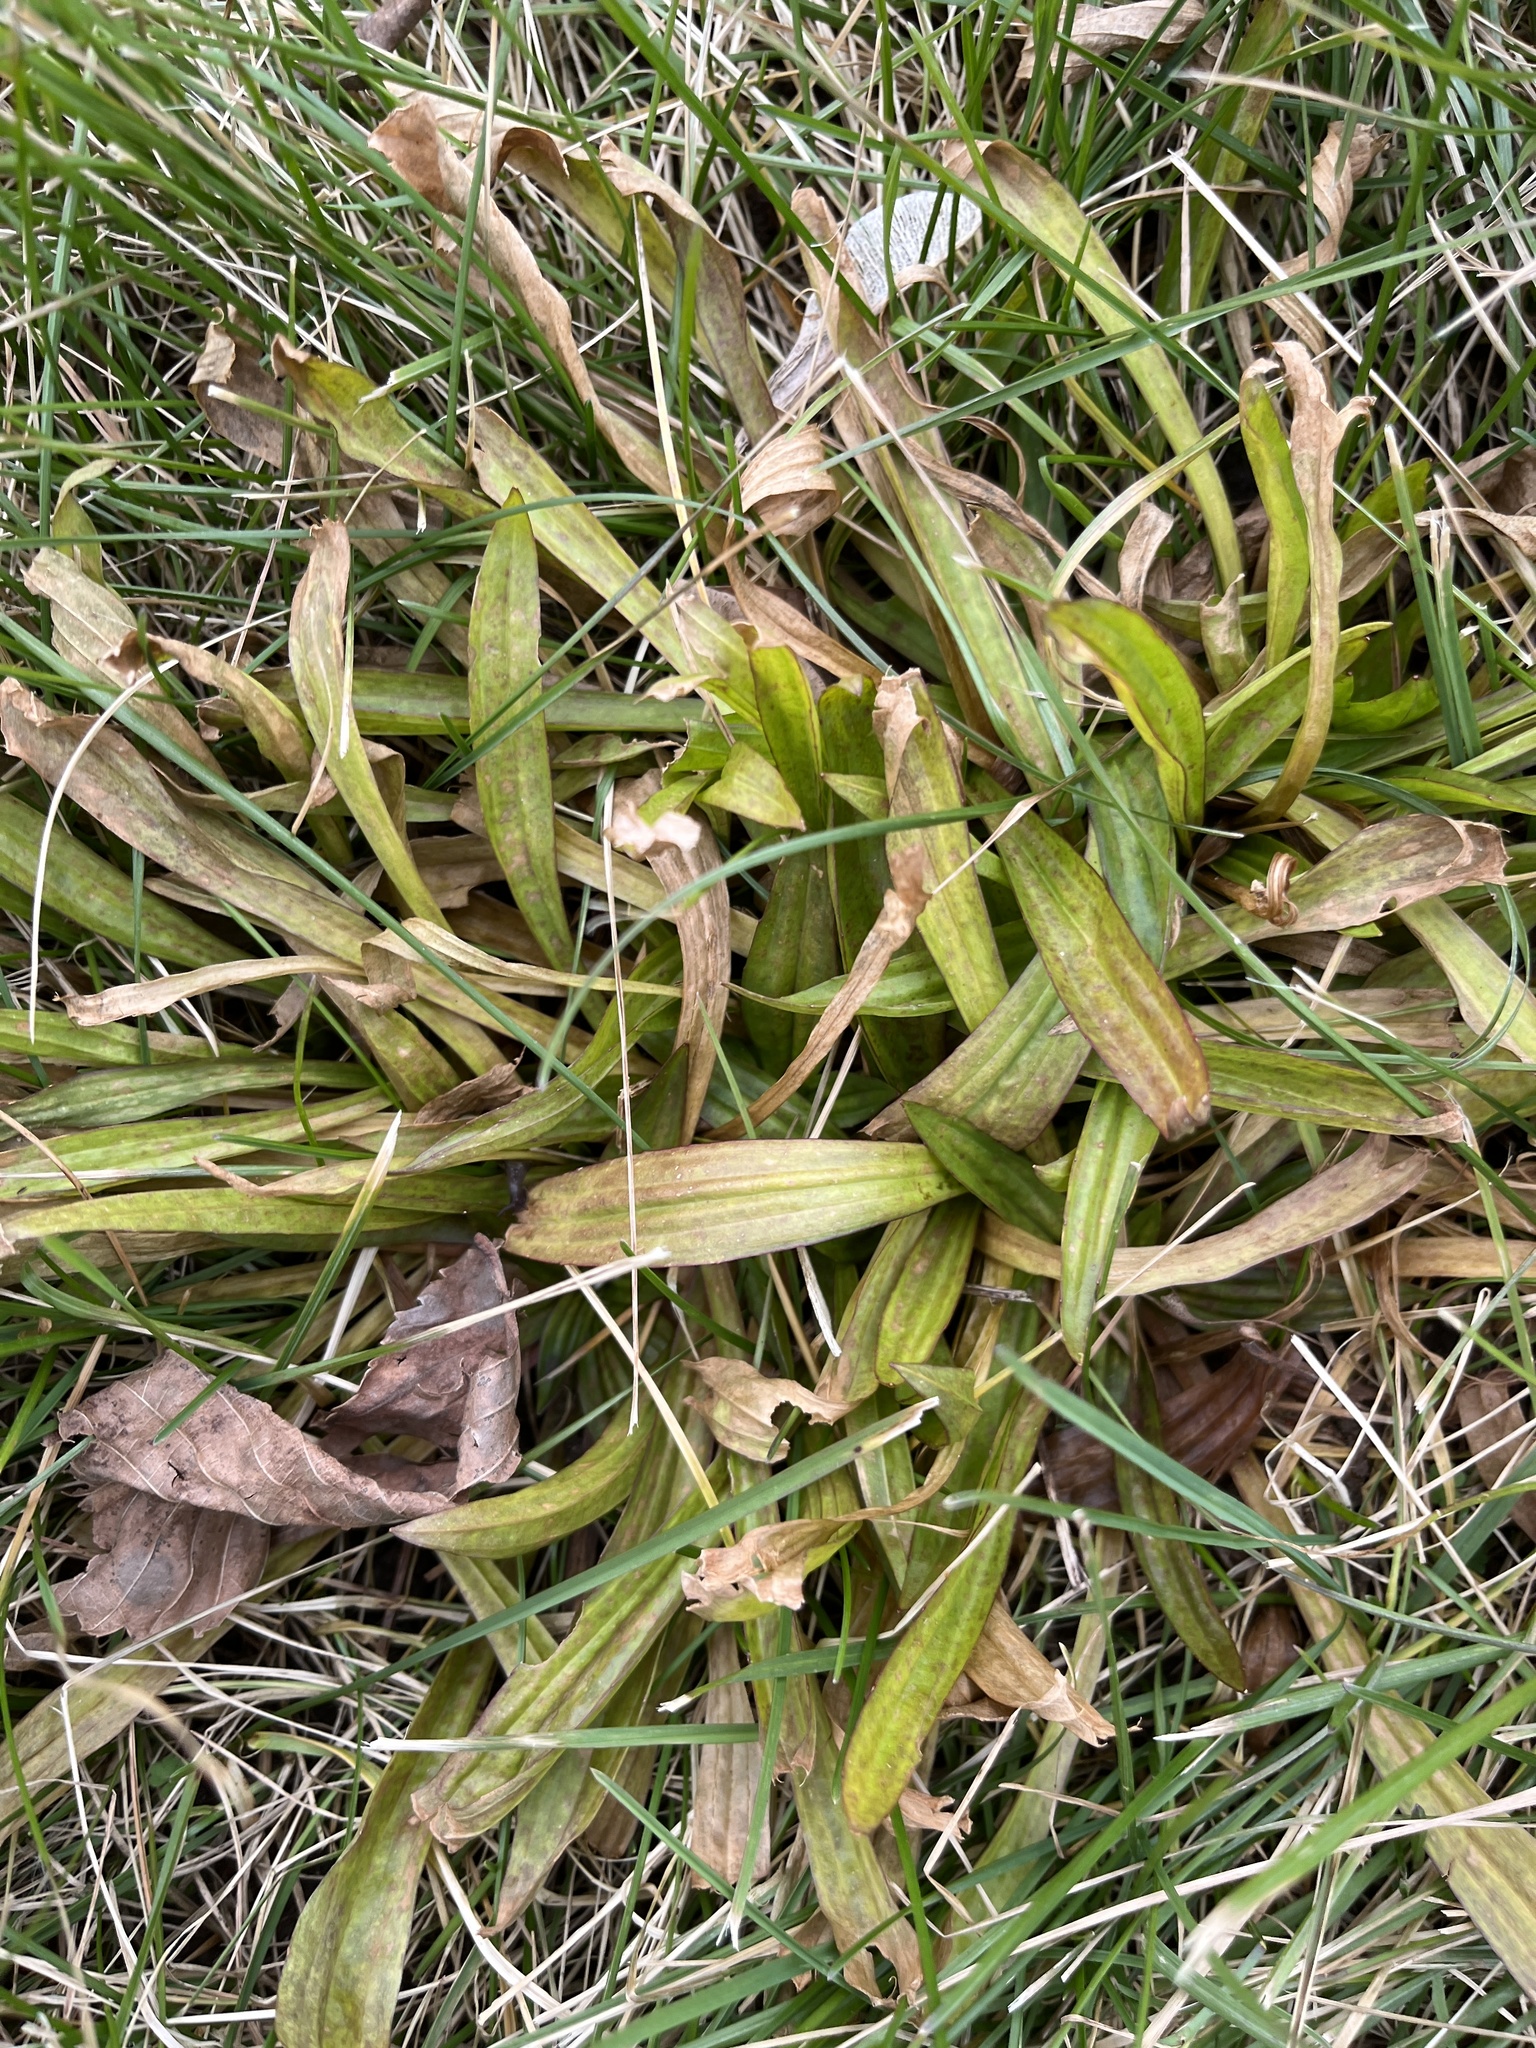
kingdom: Plantae
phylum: Tracheophyta
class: Magnoliopsida
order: Lamiales
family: Plantaginaceae
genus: Plantago
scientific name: Plantago lanceolata
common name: Ribwort plantain
